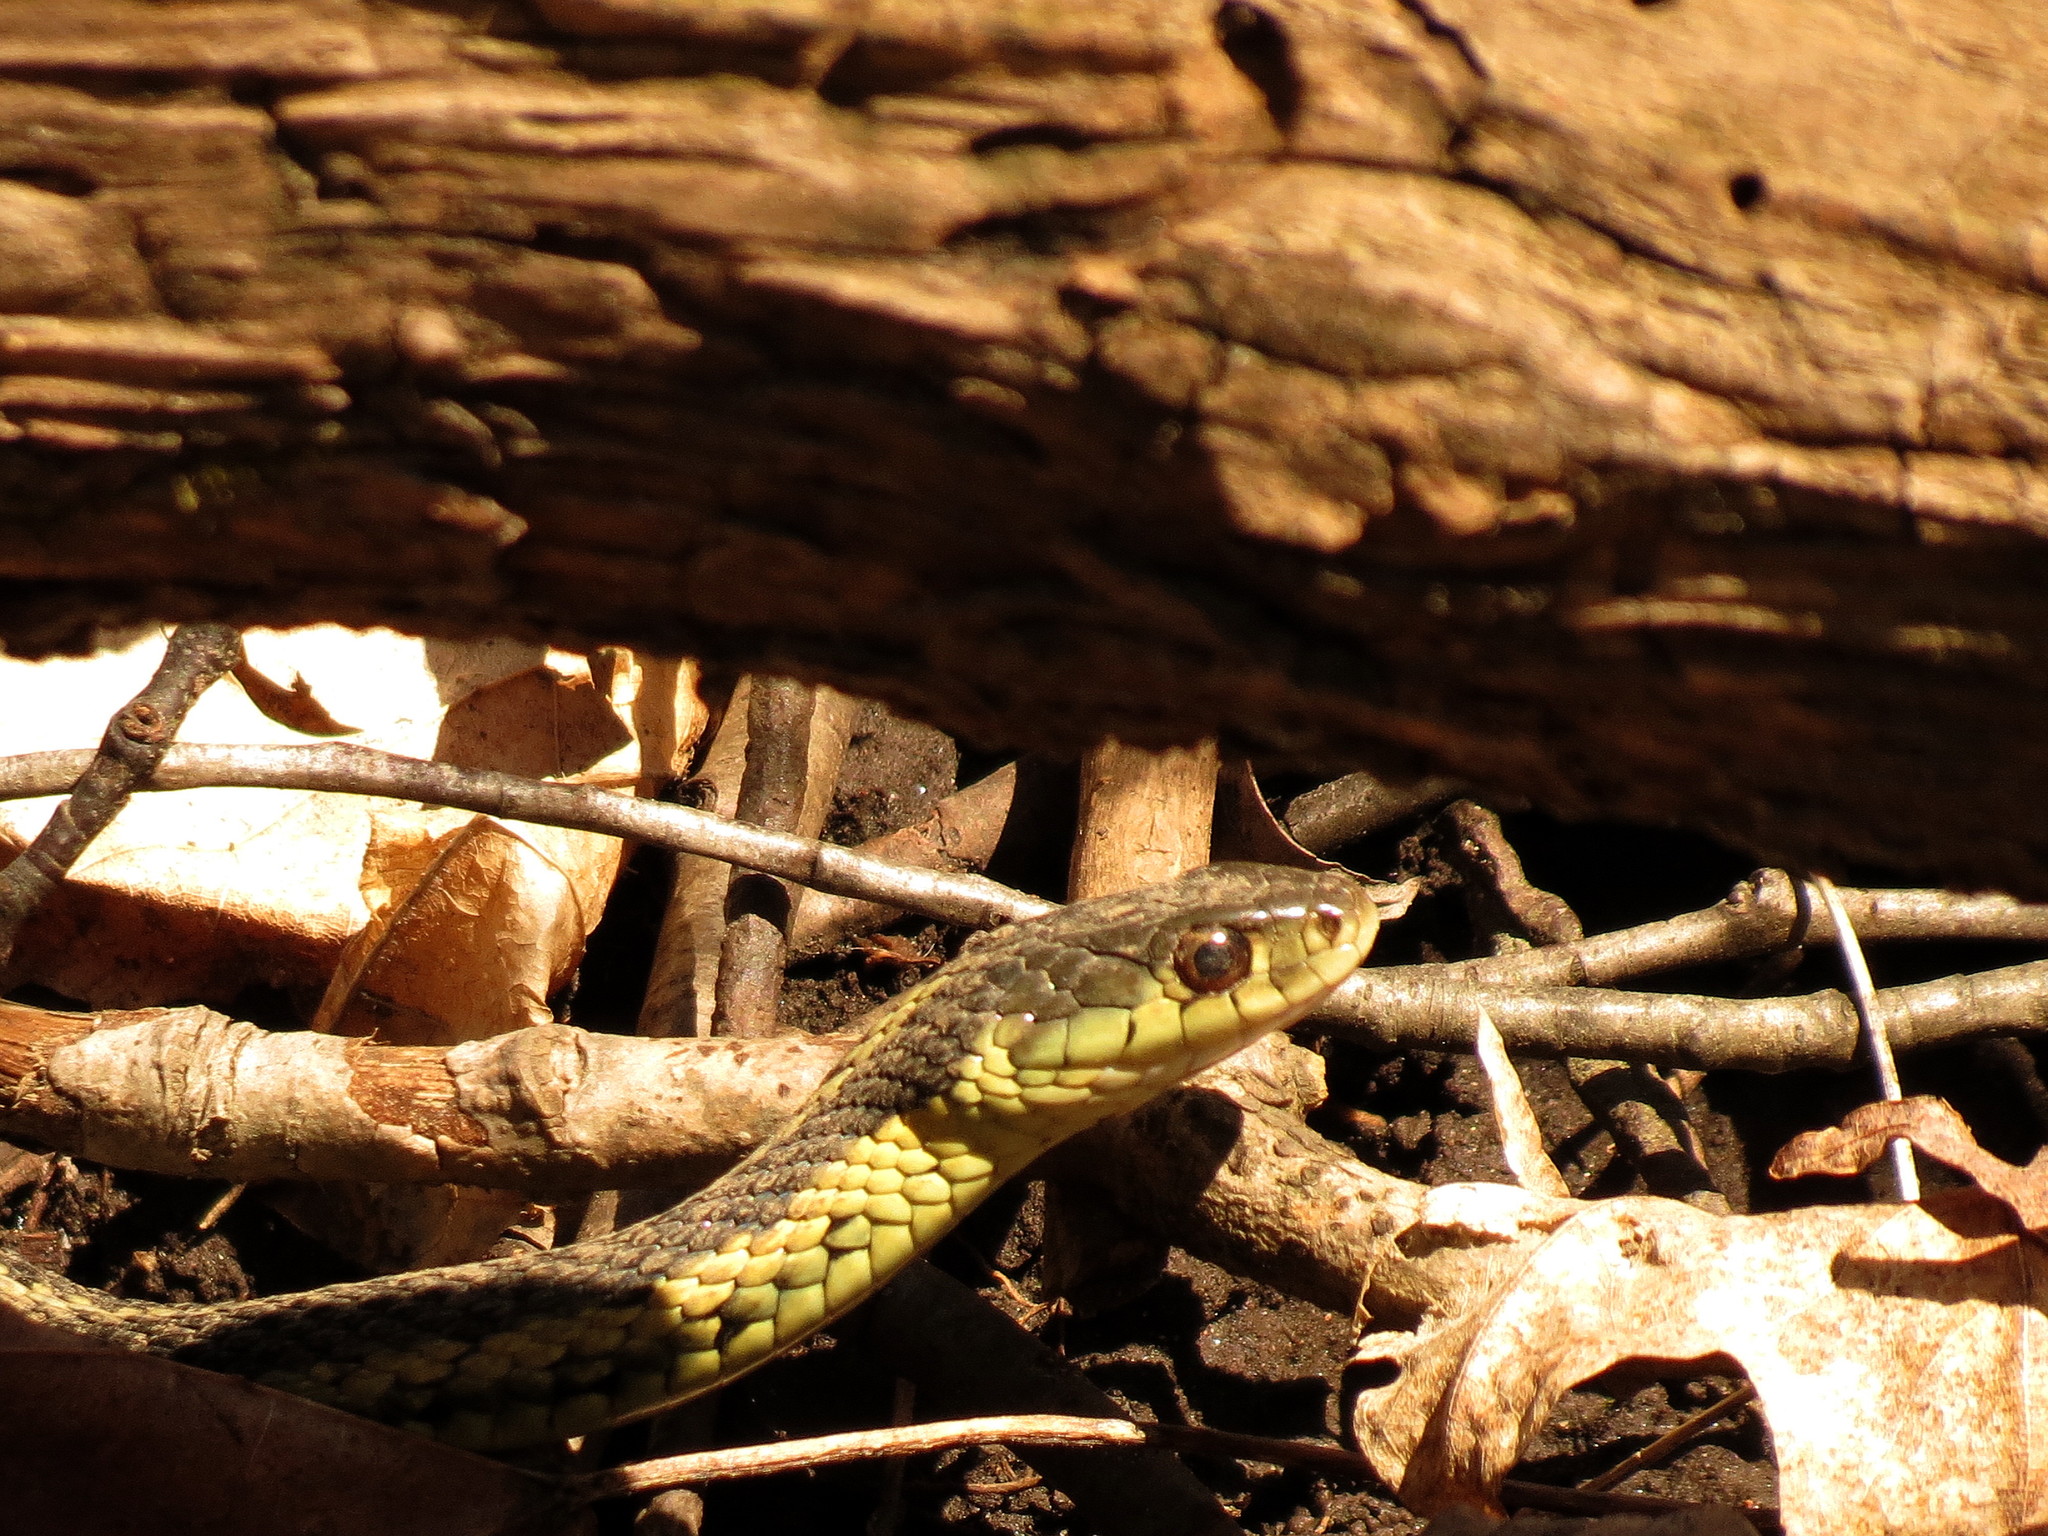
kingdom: Animalia
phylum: Chordata
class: Squamata
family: Colubridae
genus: Thamnophis
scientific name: Thamnophis sirtalis
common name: Common garter snake
